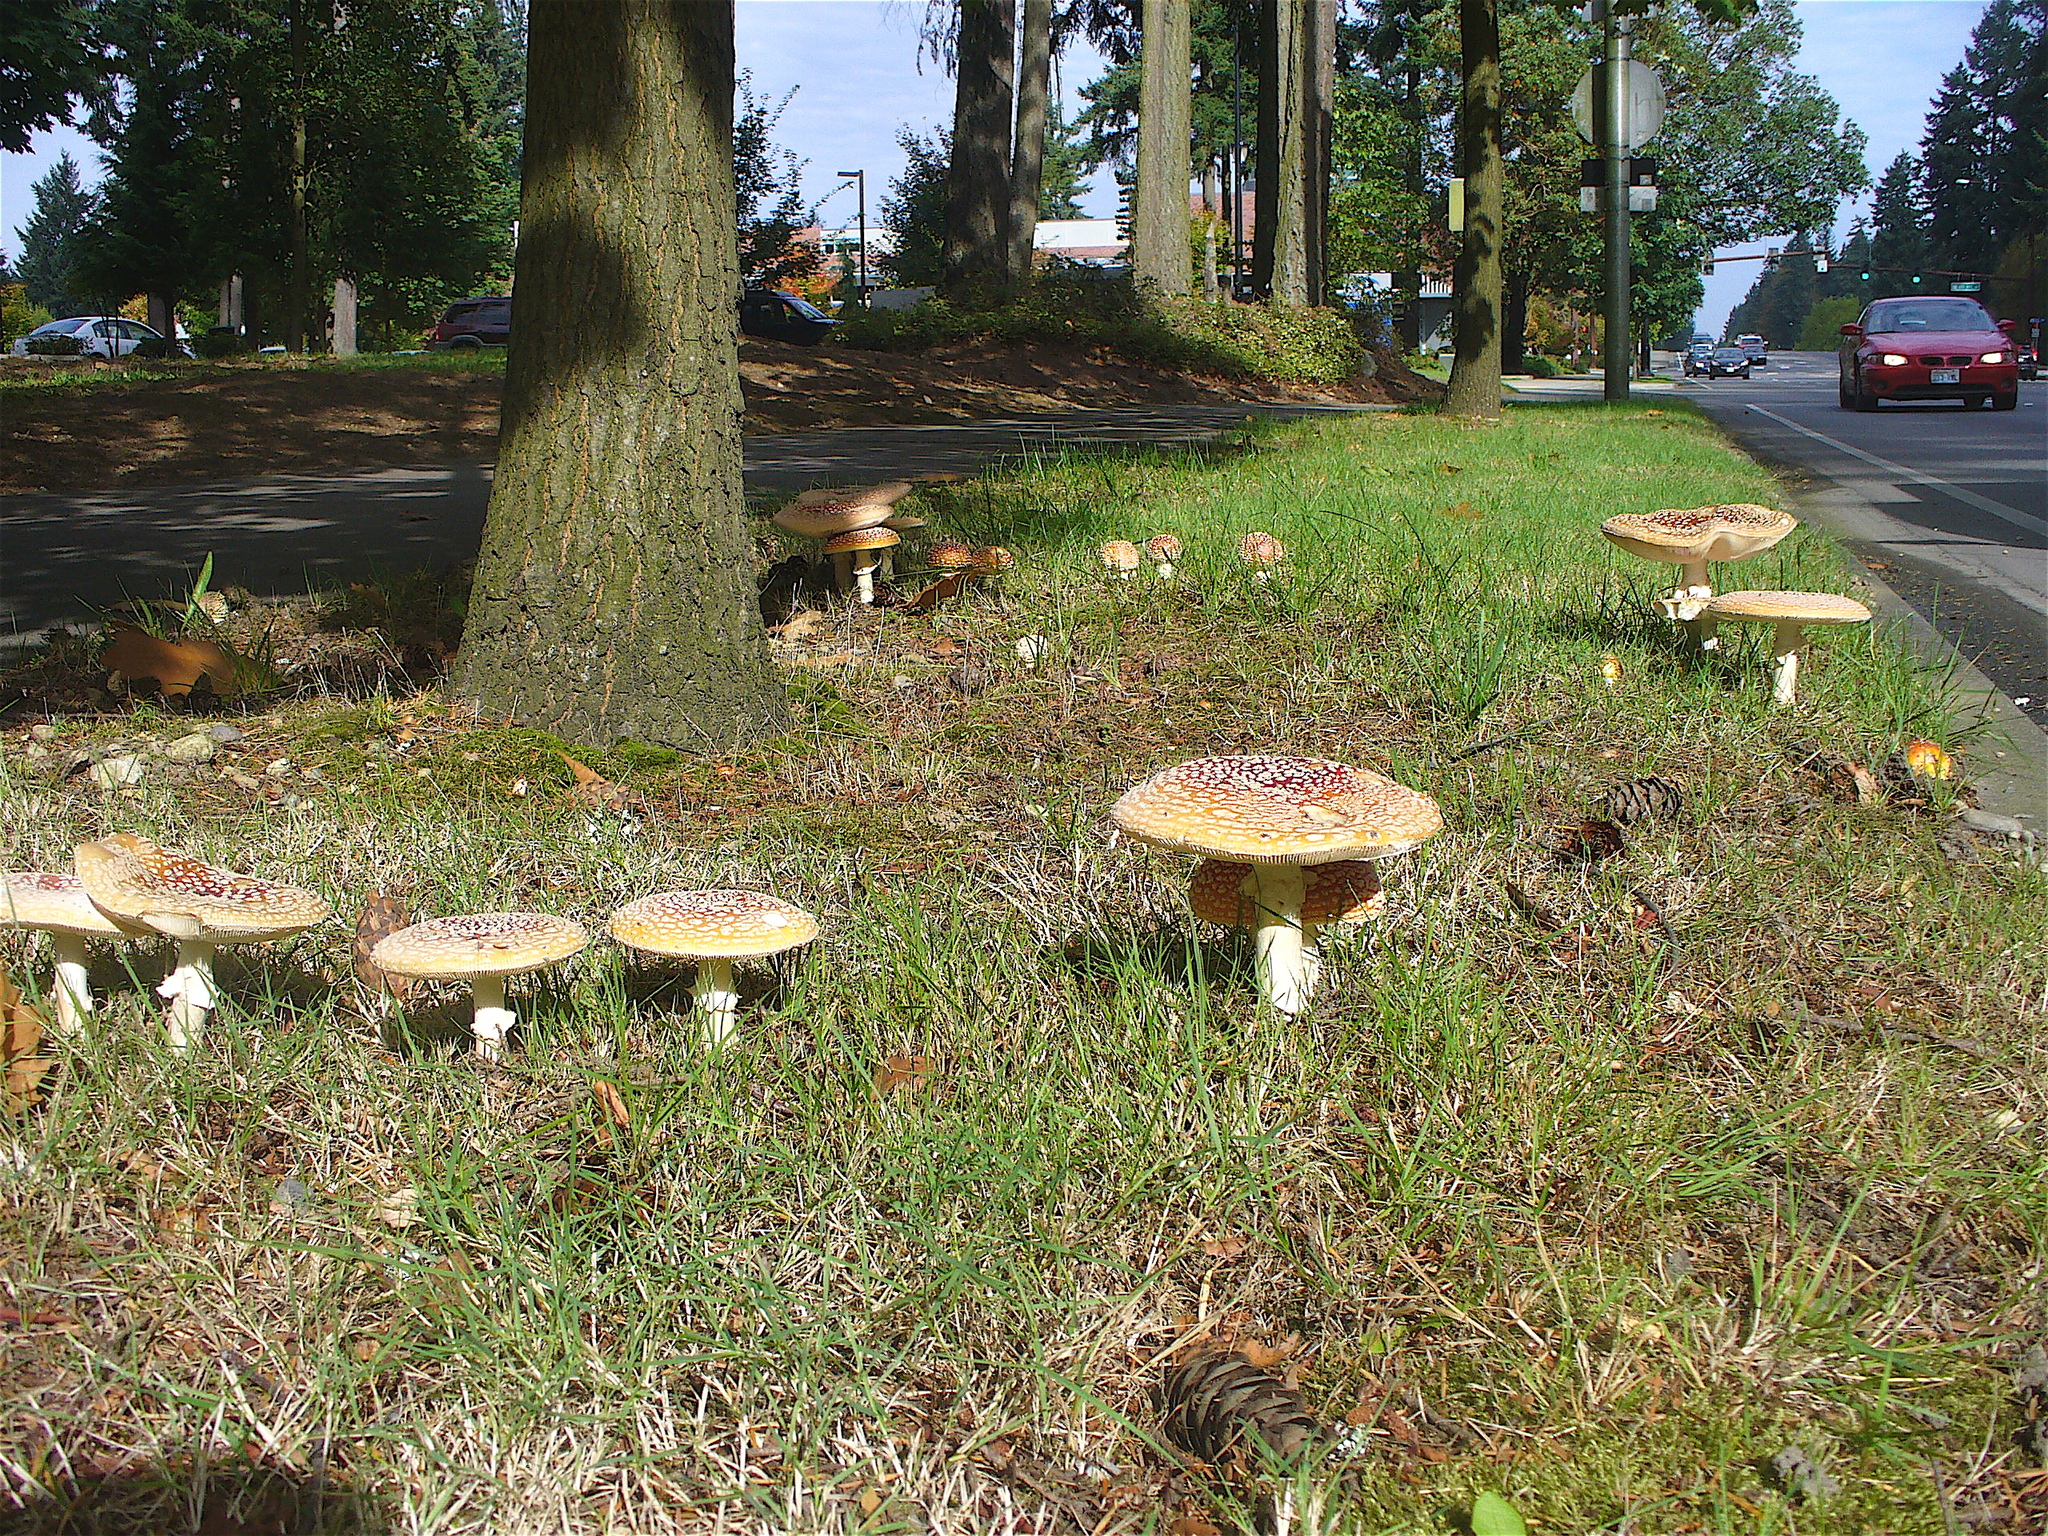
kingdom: Fungi
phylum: Basidiomycota
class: Agaricomycetes
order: Agaricales
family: Amanitaceae
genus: Amanita
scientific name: Amanita muscaria
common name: Fly agaric
